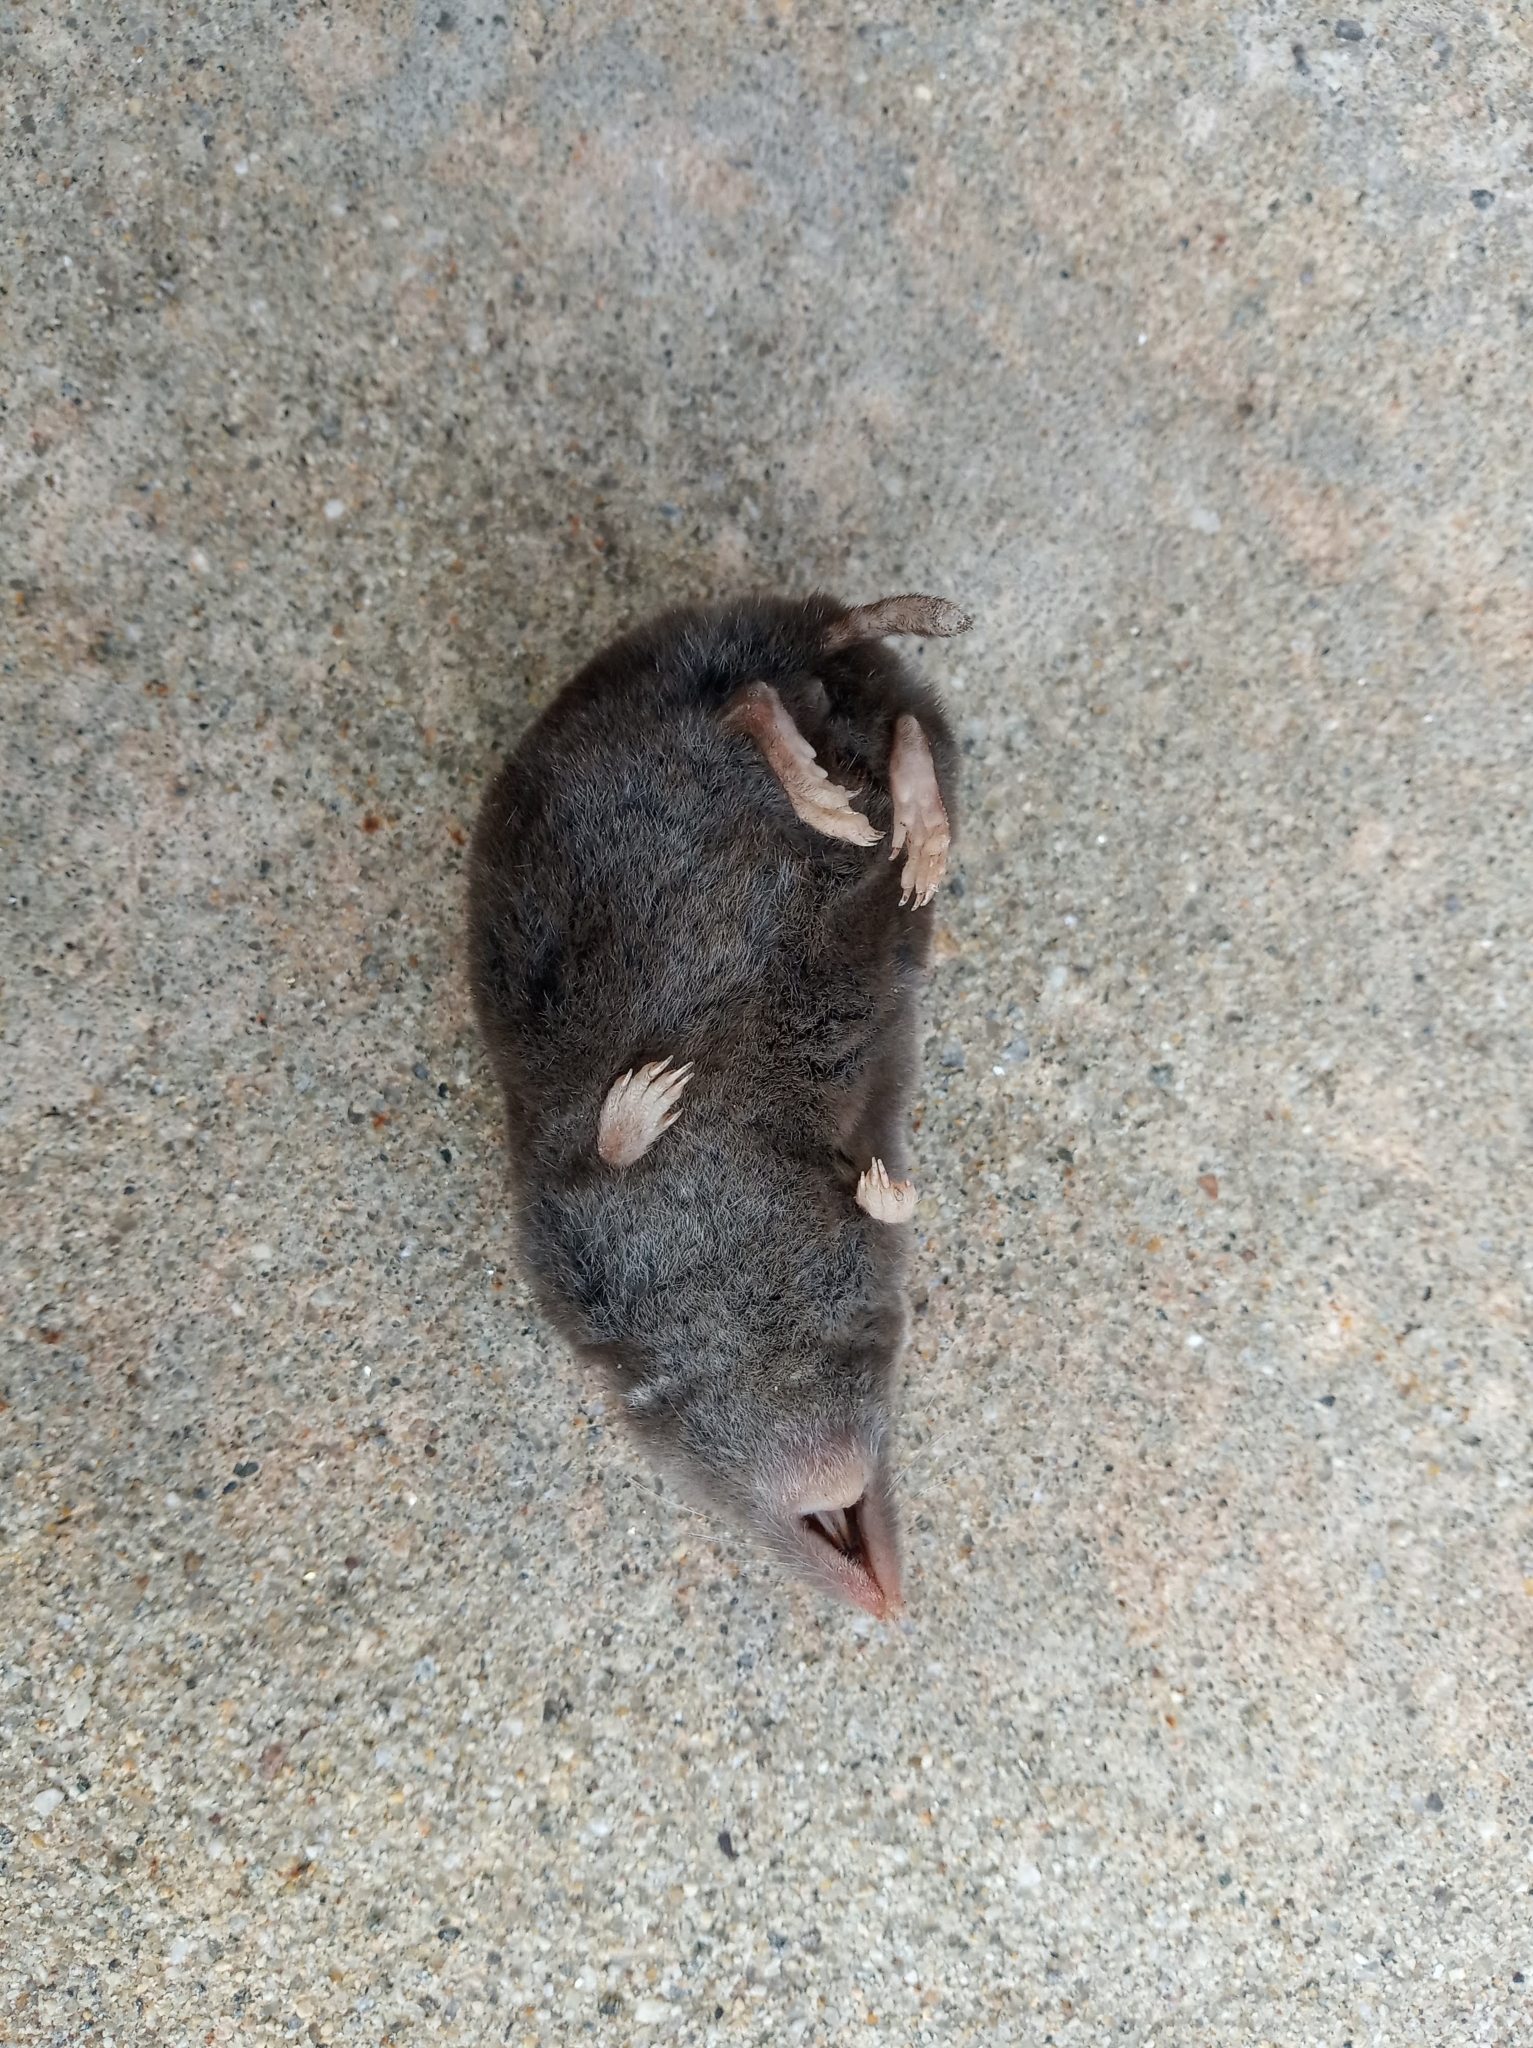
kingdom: Animalia
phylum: Chordata
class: Mammalia
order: Soricomorpha
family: Soricidae
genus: Blarina
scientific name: Blarina brevicauda
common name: Northern short-tailed shrew
